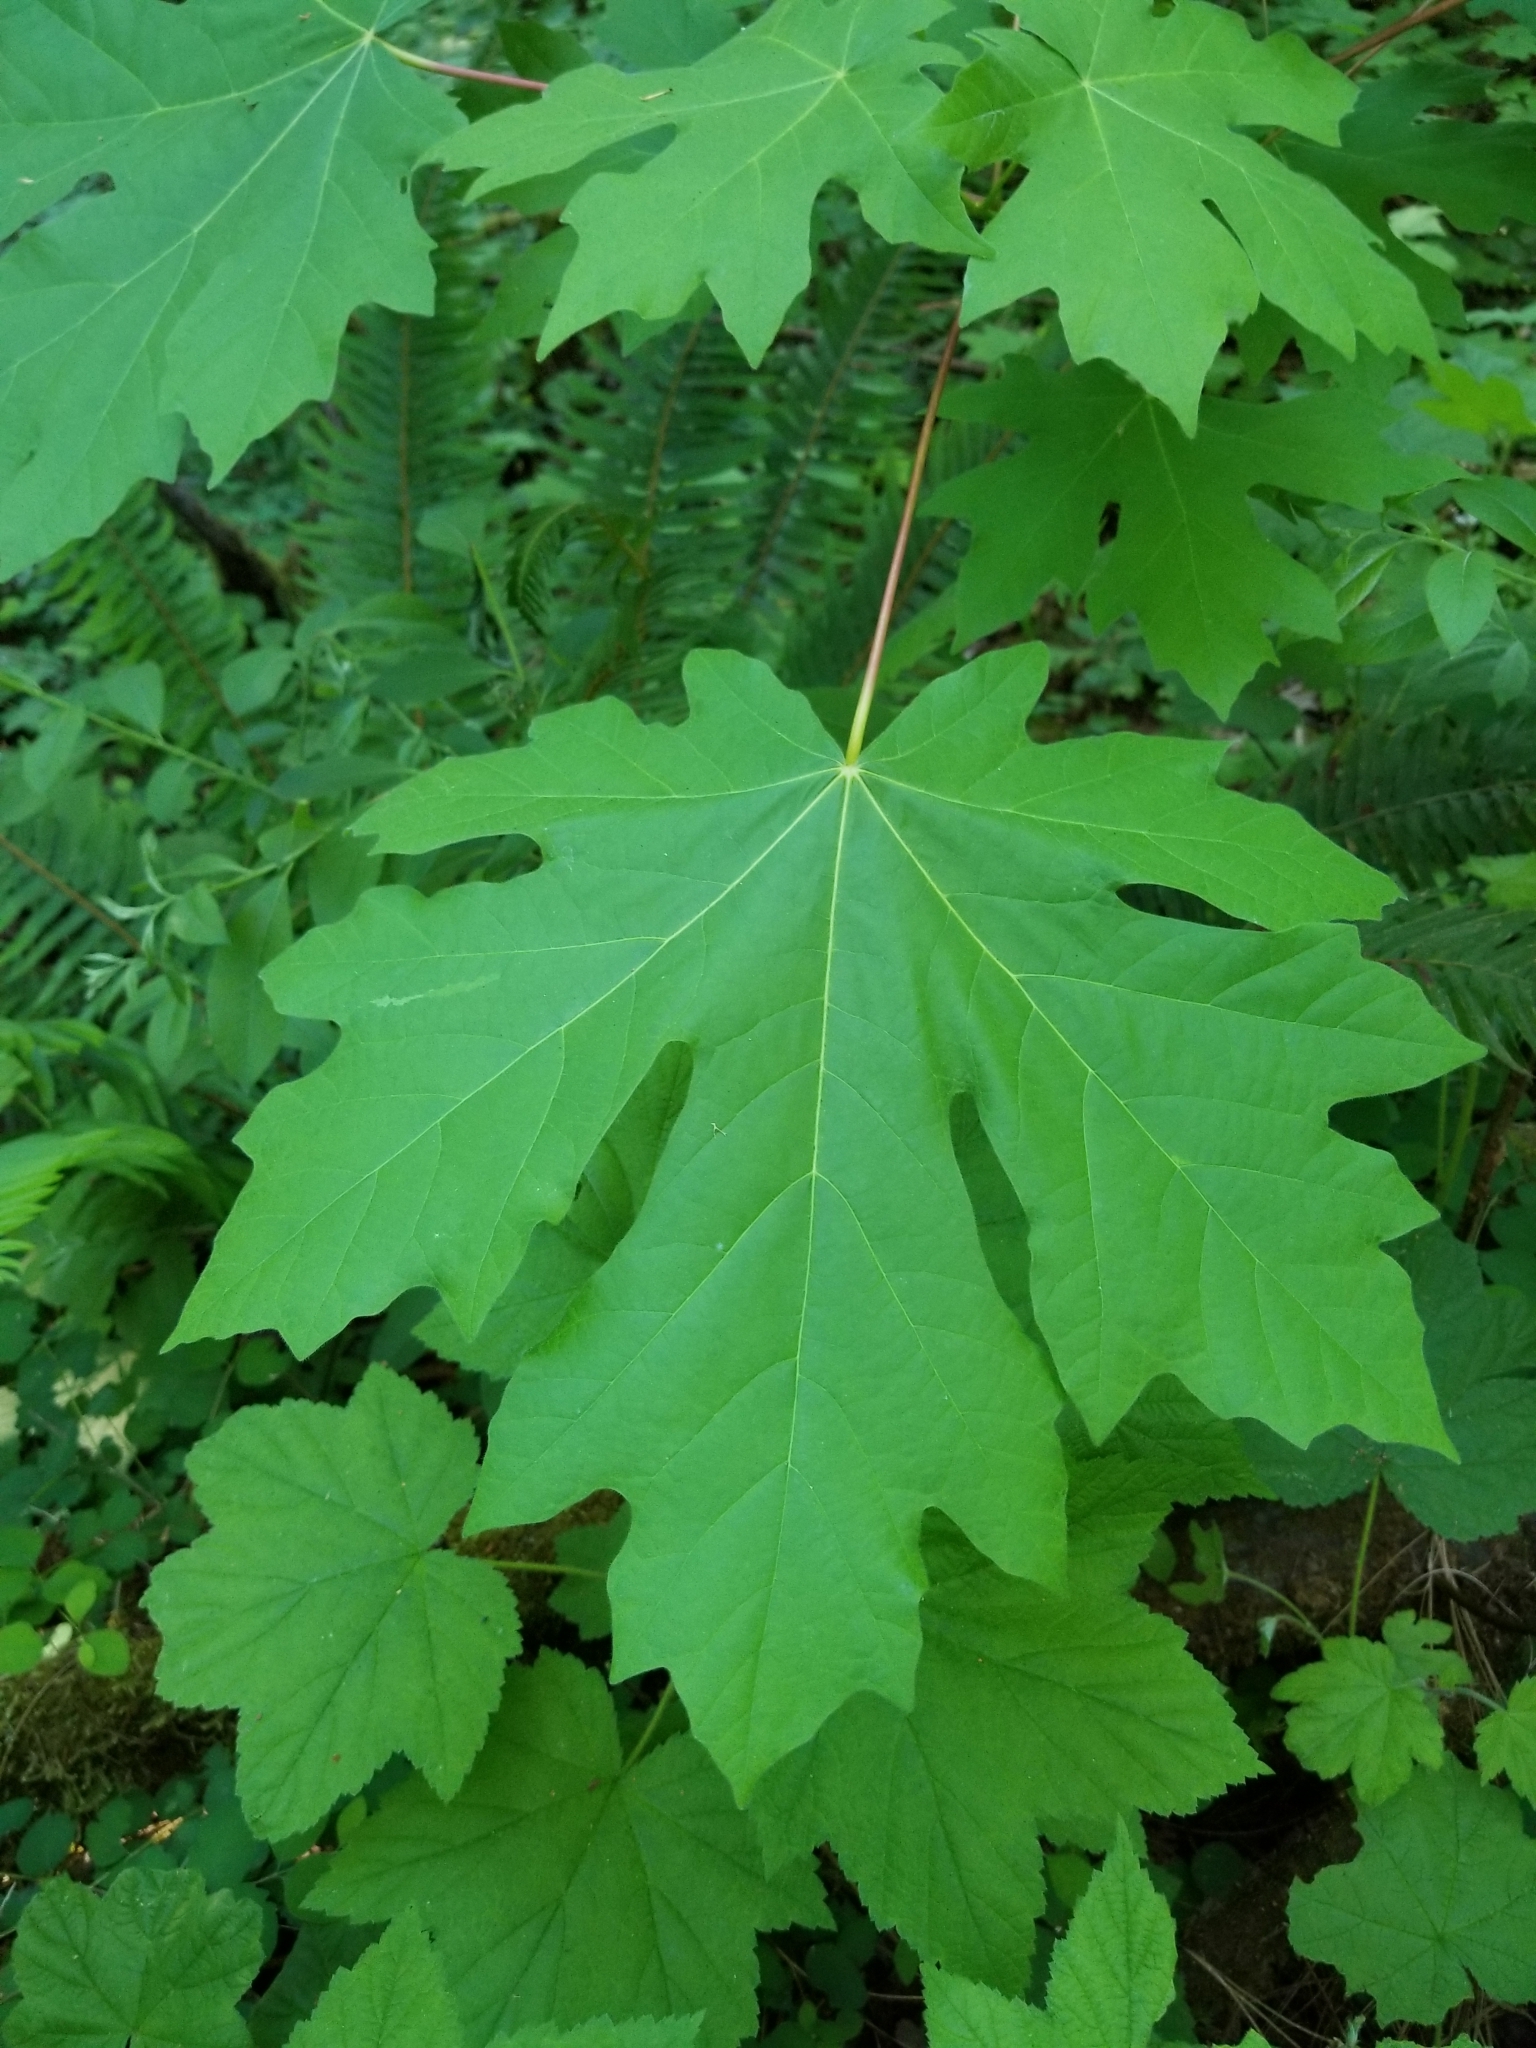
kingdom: Plantae
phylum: Tracheophyta
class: Magnoliopsida
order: Sapindales
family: Sapindaceae
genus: Acer
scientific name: Acer macrophyllum
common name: Oregon maple
